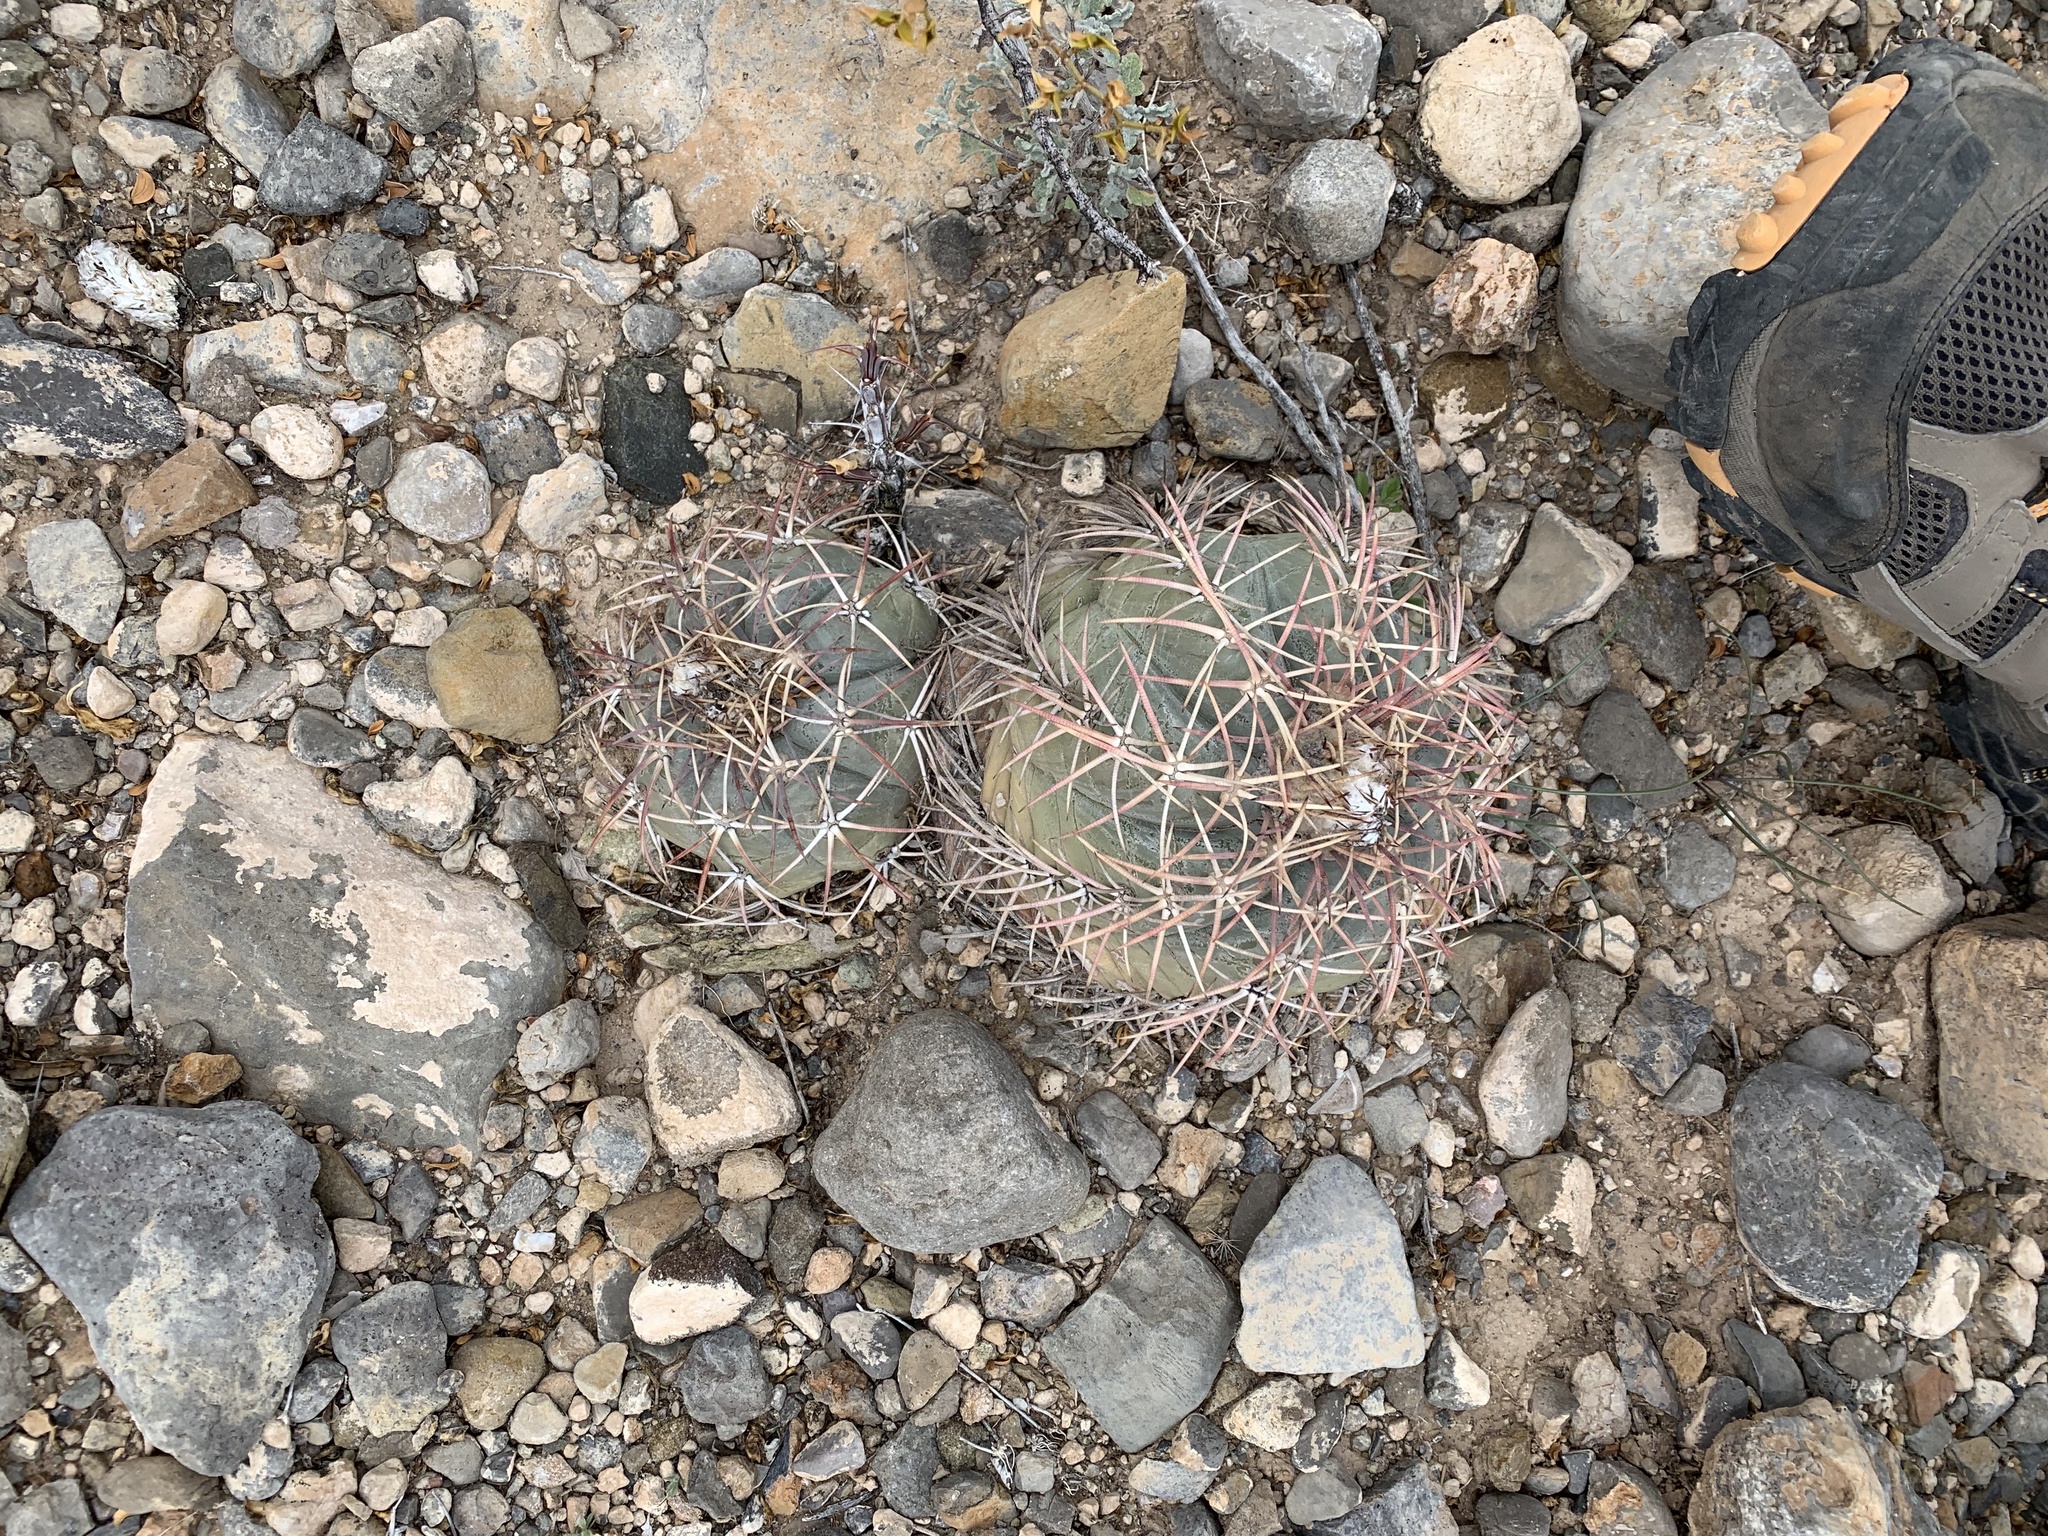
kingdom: Plantae
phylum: Tracheophyta
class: Magnoliopsida
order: Caryophyllales
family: Cactaceae
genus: Echinocactus
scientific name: Echinocactus horizonthalonius
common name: Devilshead
